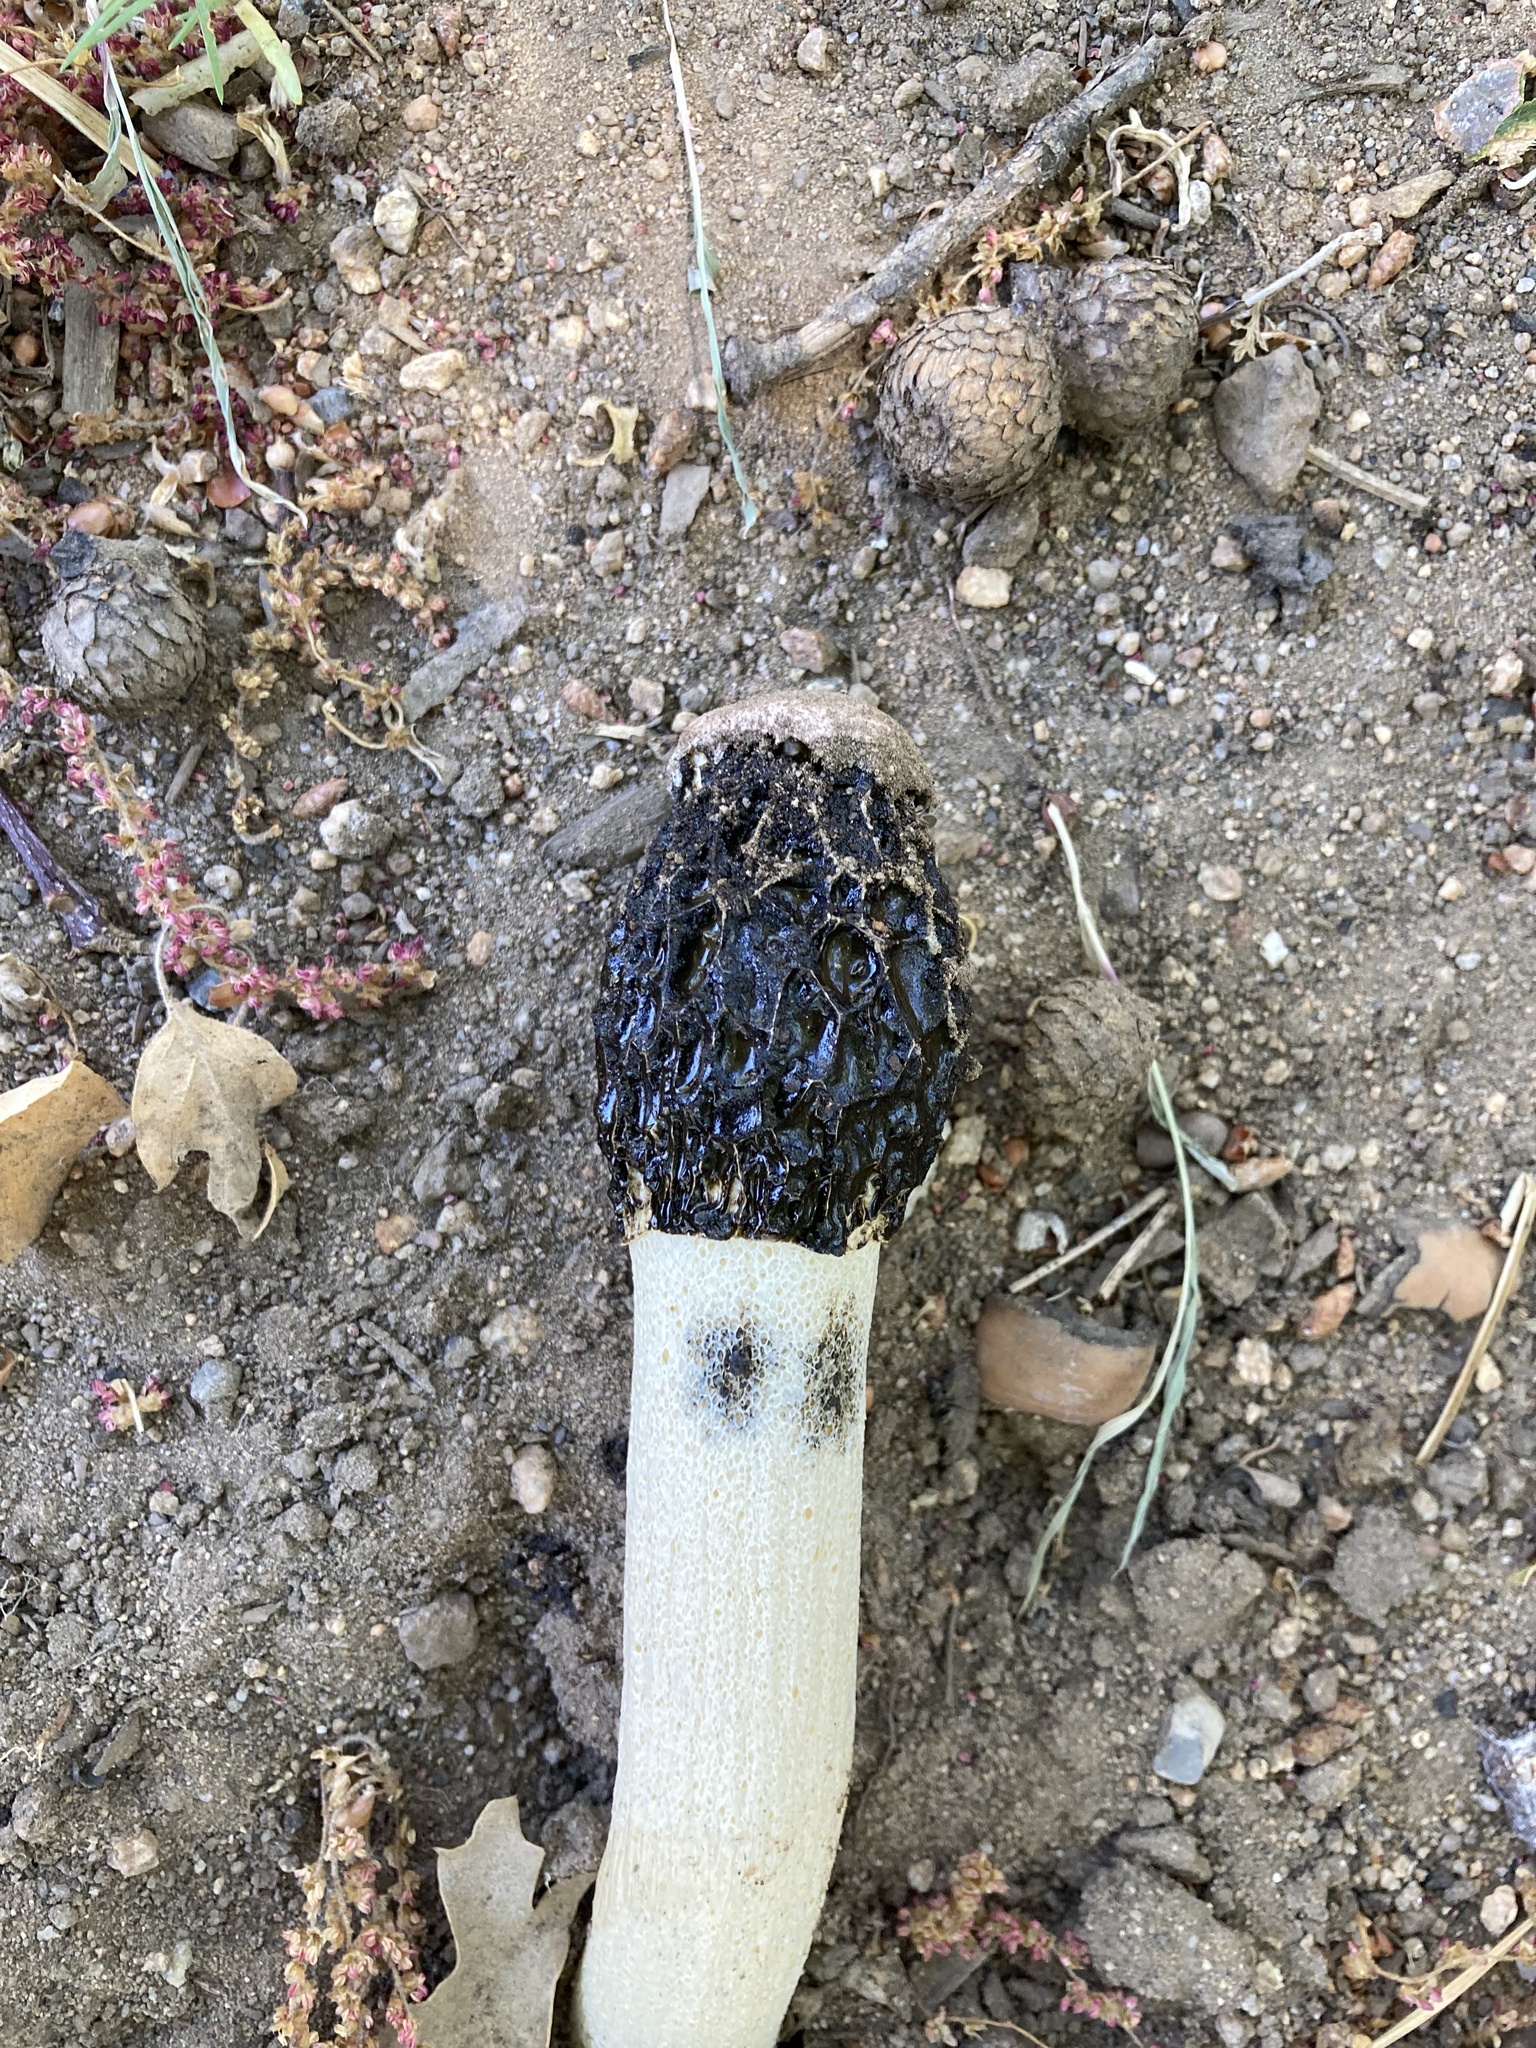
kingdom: Fungi
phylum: Basidiomycota
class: Agaricomycetes
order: Phallales
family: Phallaceae
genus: Phallus
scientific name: Phallus hadriani
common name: Sand stinkhorn
